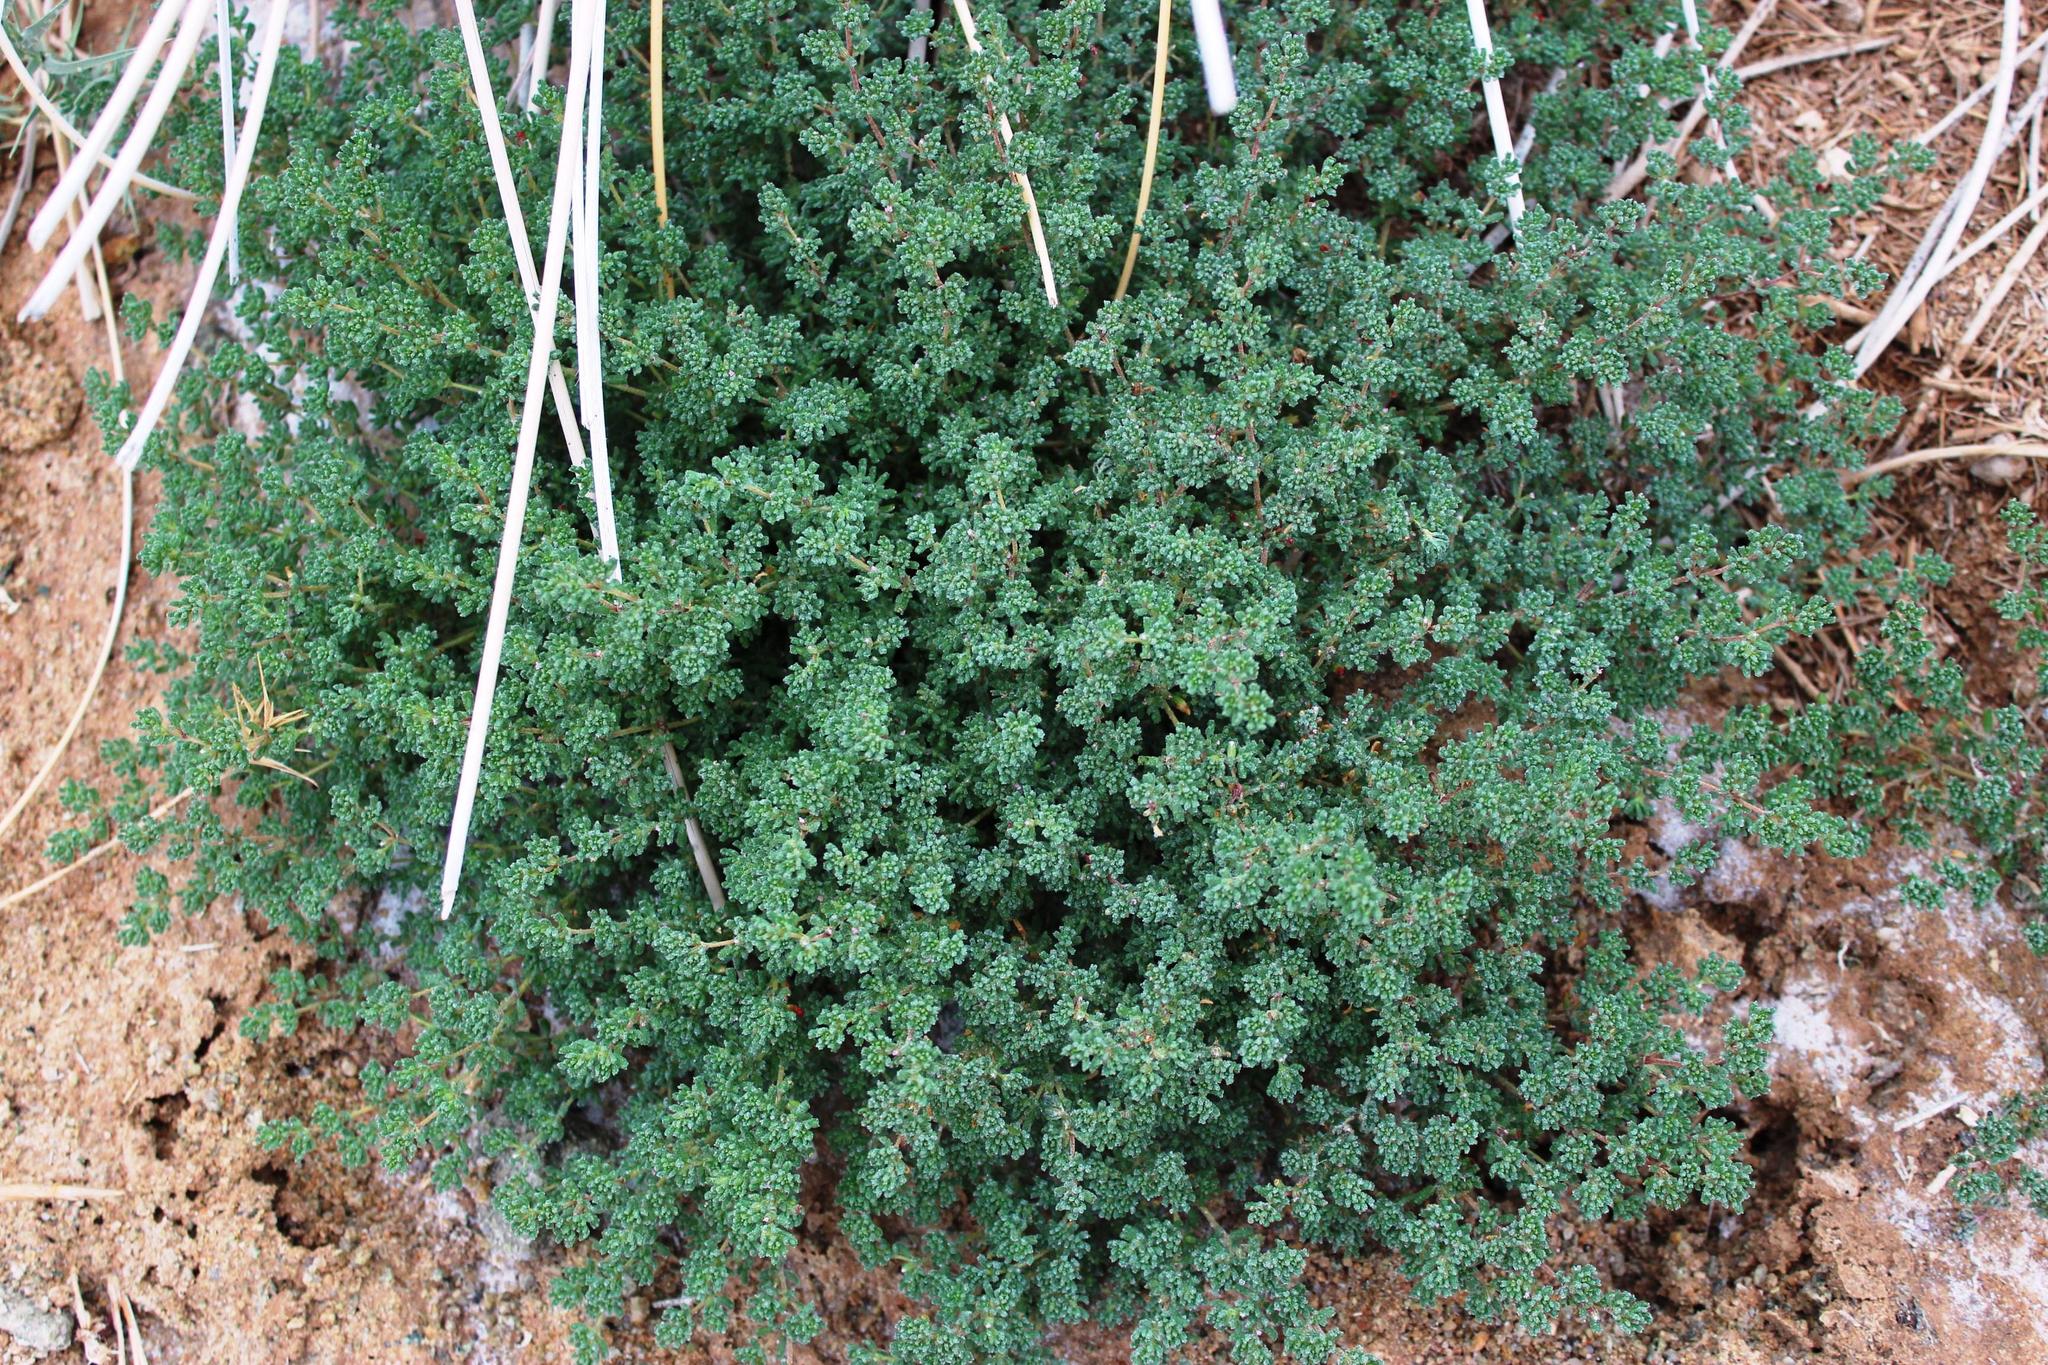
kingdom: Plantae
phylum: Tracheophyta
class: Magnoliopsida
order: Caryophyllales
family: Frankeniaceae
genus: Frankenia
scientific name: Frankenia pulverulenta
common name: European seaheath
